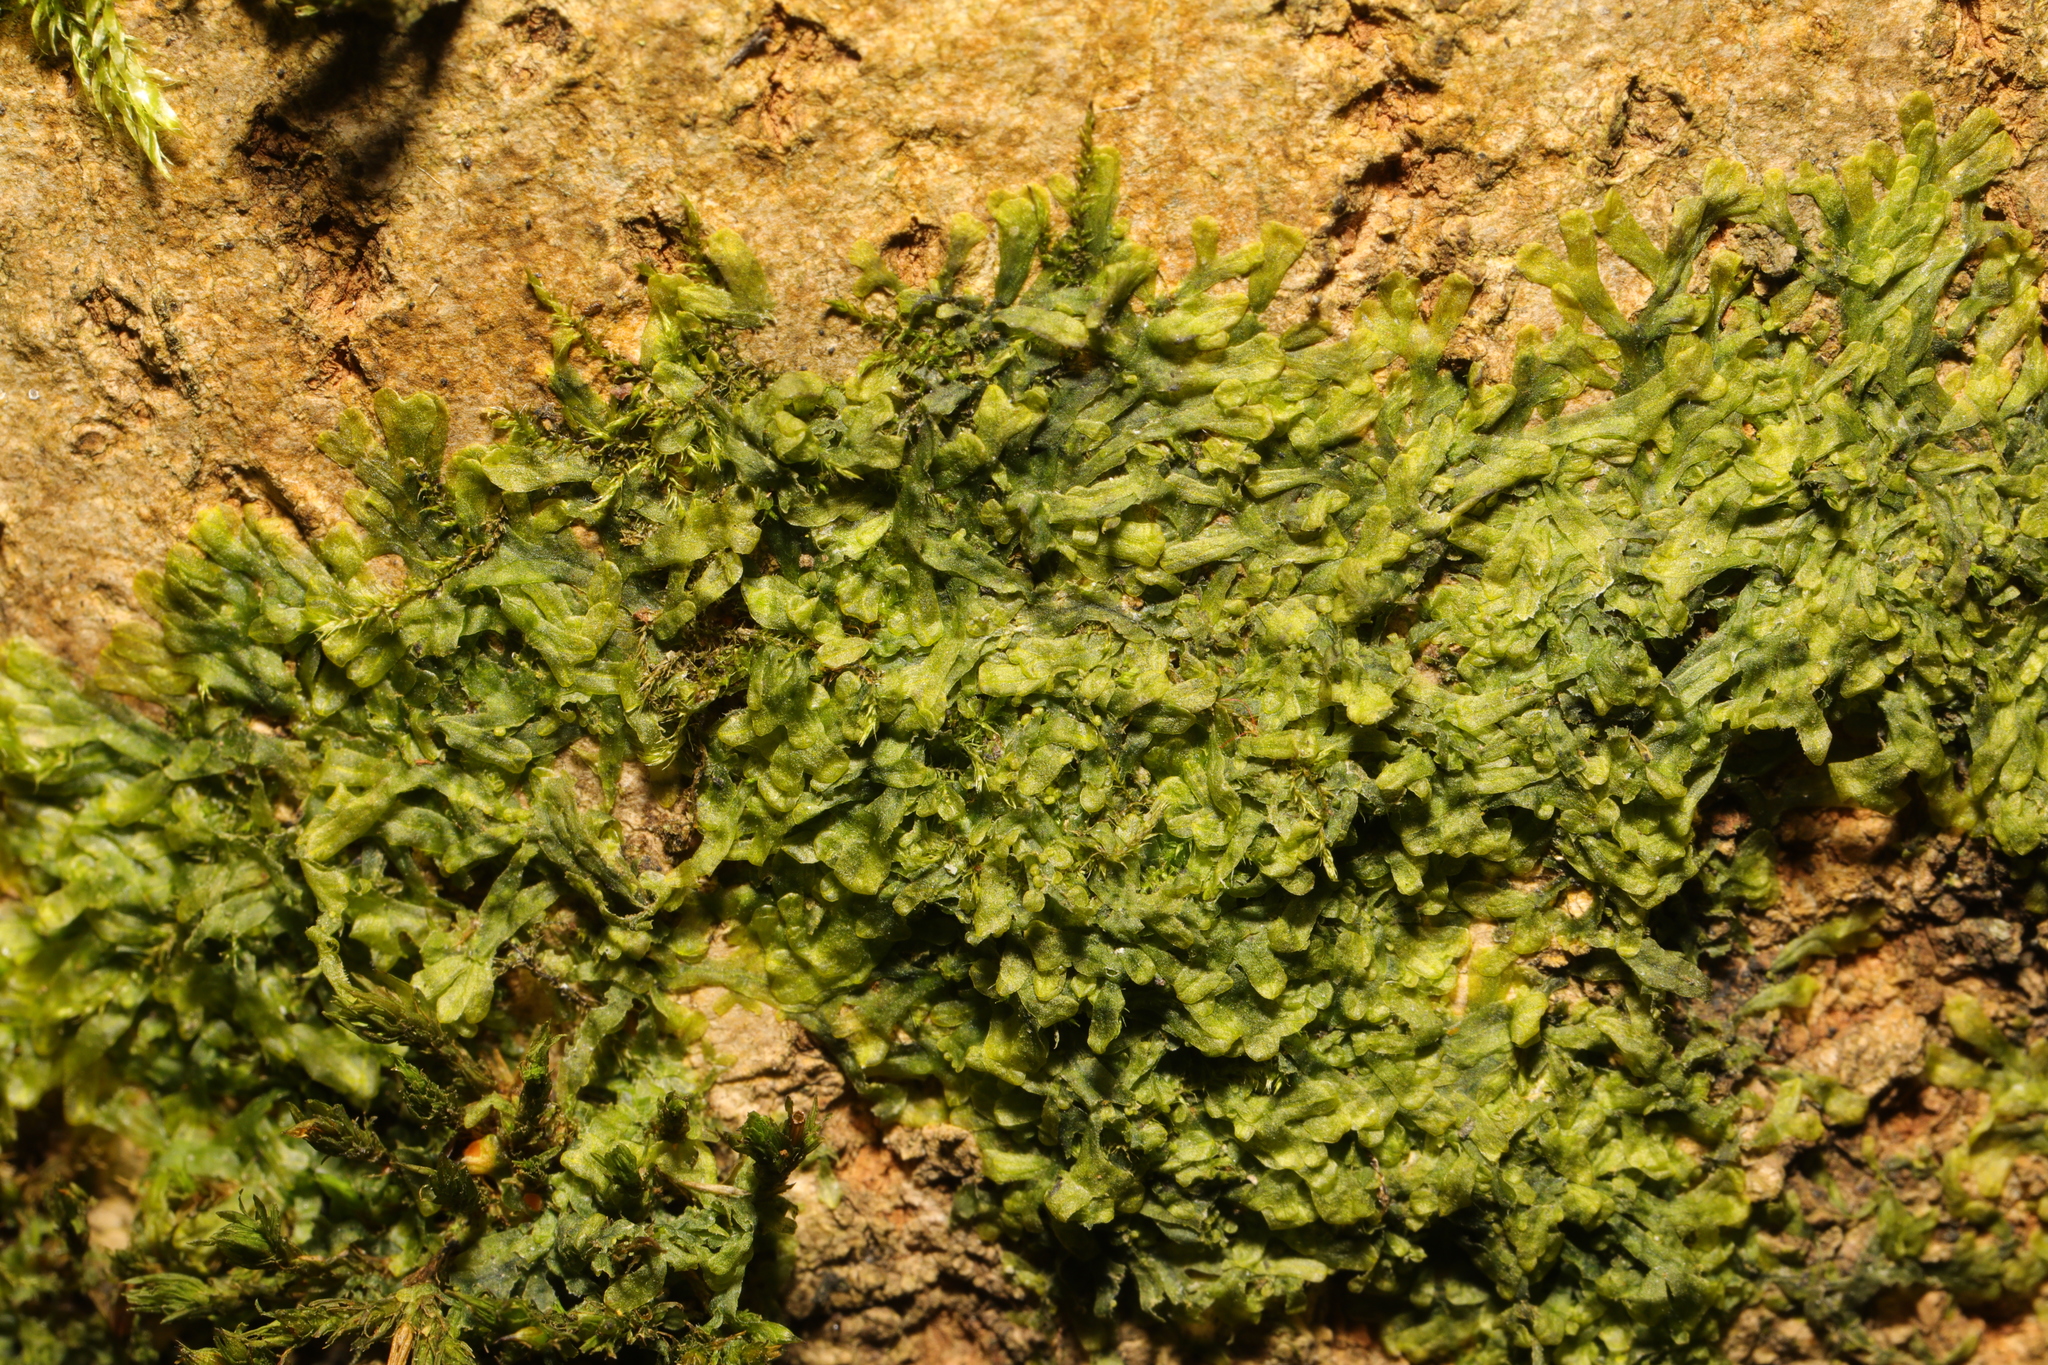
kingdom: Plantae
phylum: Marchantiophyta
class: Jungermanniopsida
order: Metzgeriales
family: Metzgeriaceae
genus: Metzgeria
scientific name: Metzgeria furcata
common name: Forked veilwort
